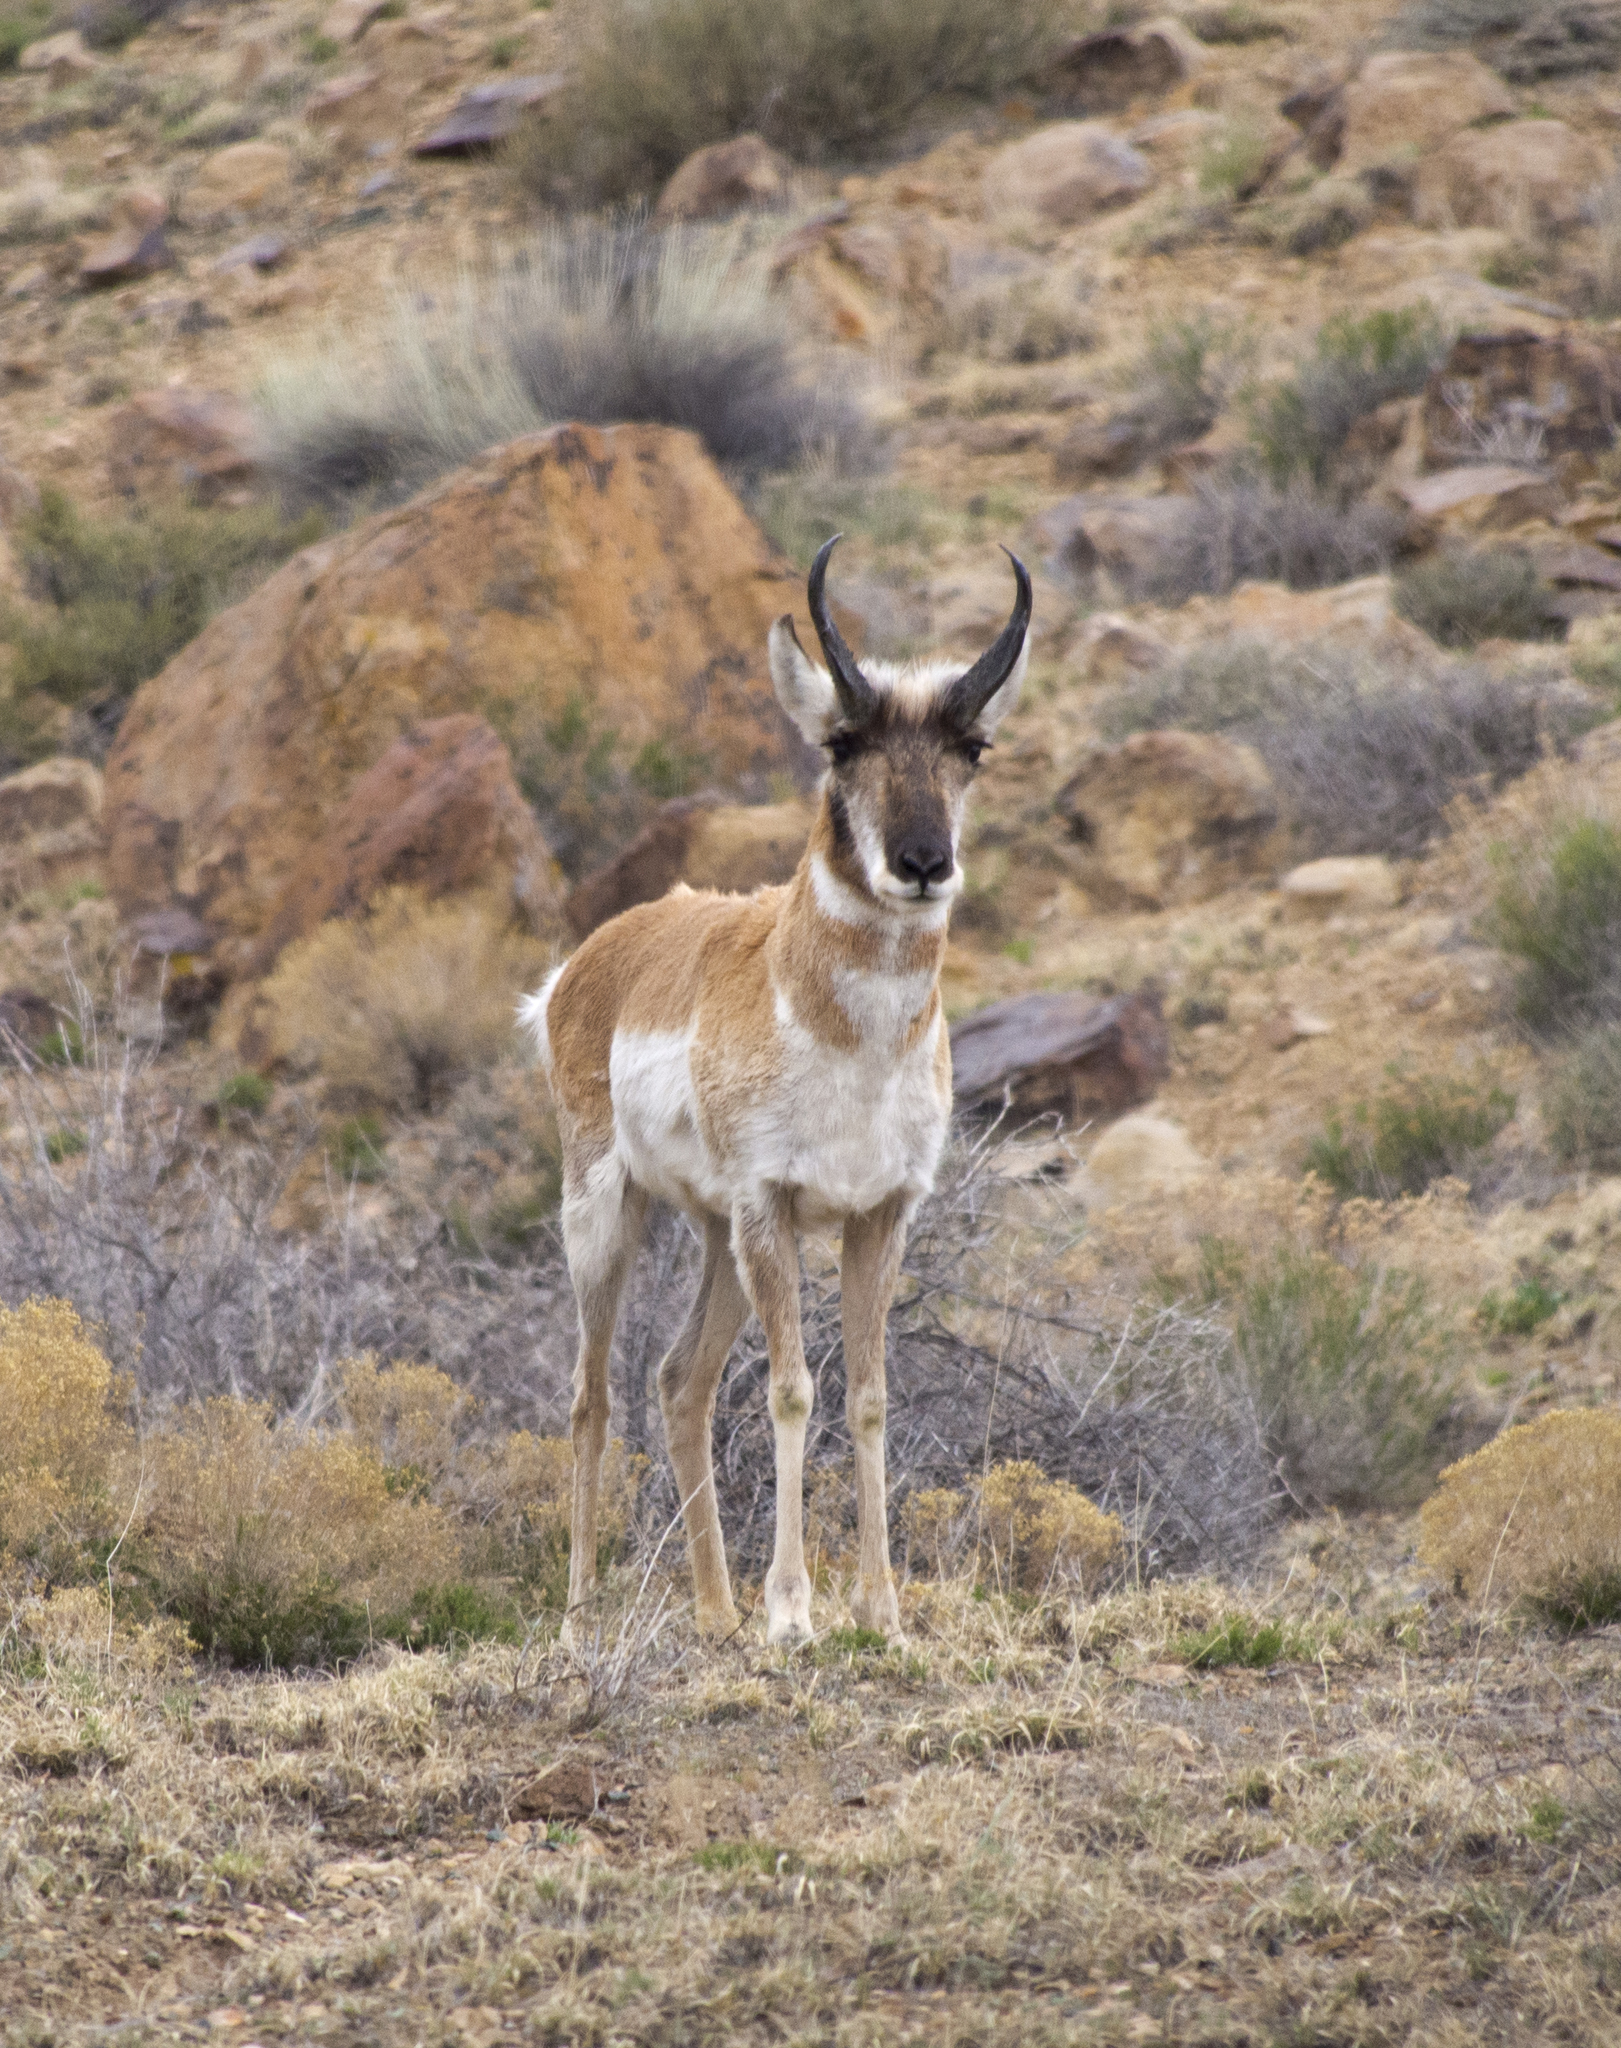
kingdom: Animalia
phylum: Chordata
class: Mammalia
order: Artiodactyla
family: Antilocapridae
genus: Antilocapra
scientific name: Antilocapra americana
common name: Pronghorn
